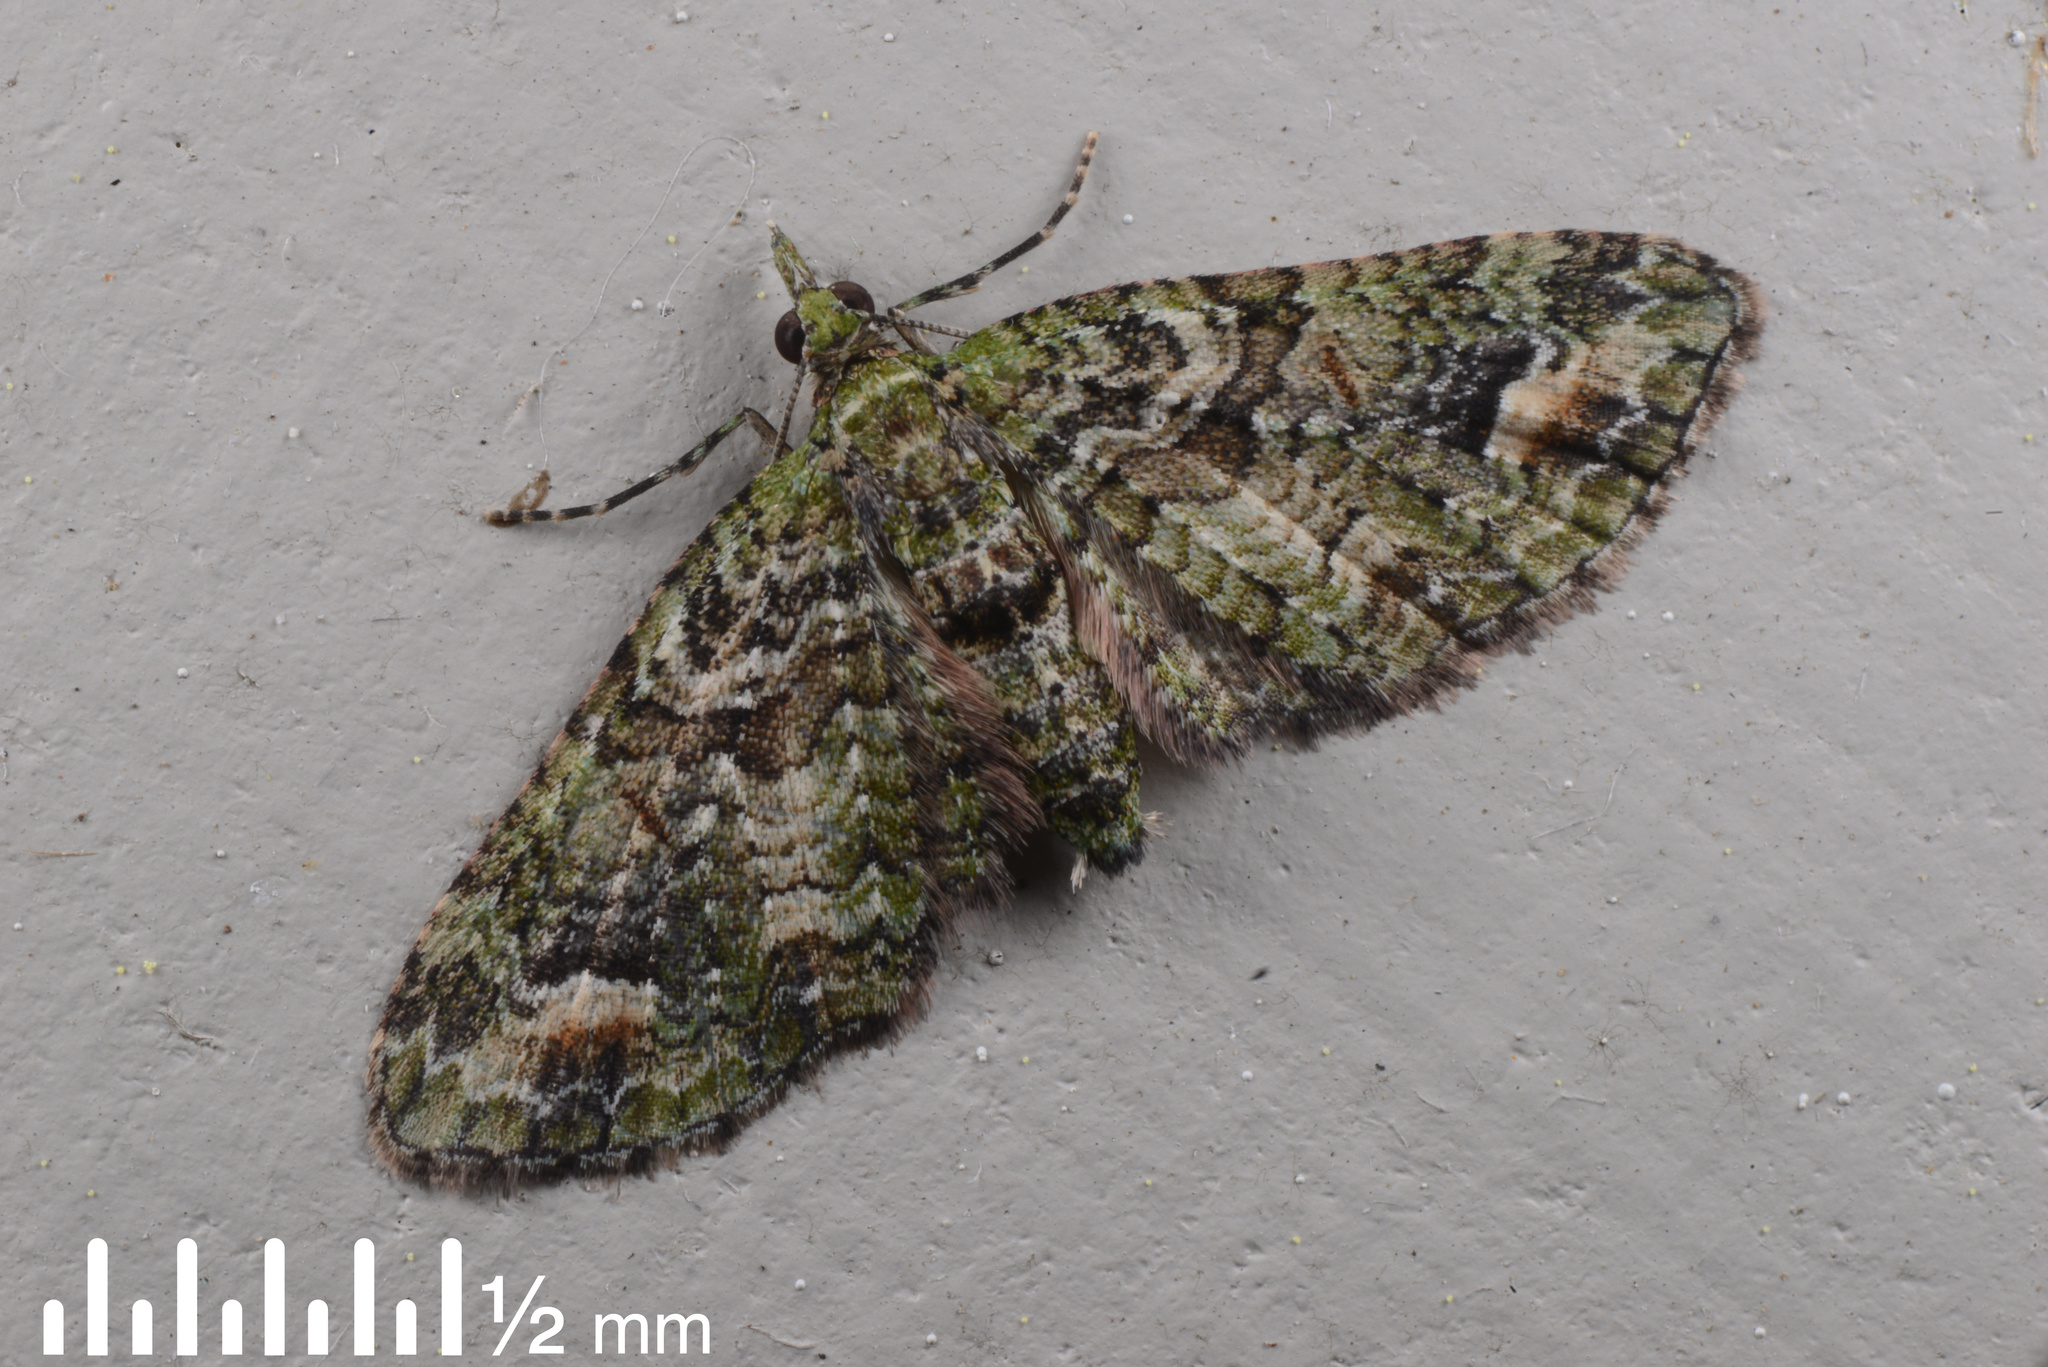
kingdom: Animalia
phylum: Arthropoda
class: Insecta
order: Lepidoptera
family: Geometridae
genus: Idaea
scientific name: Idaea mutanda
